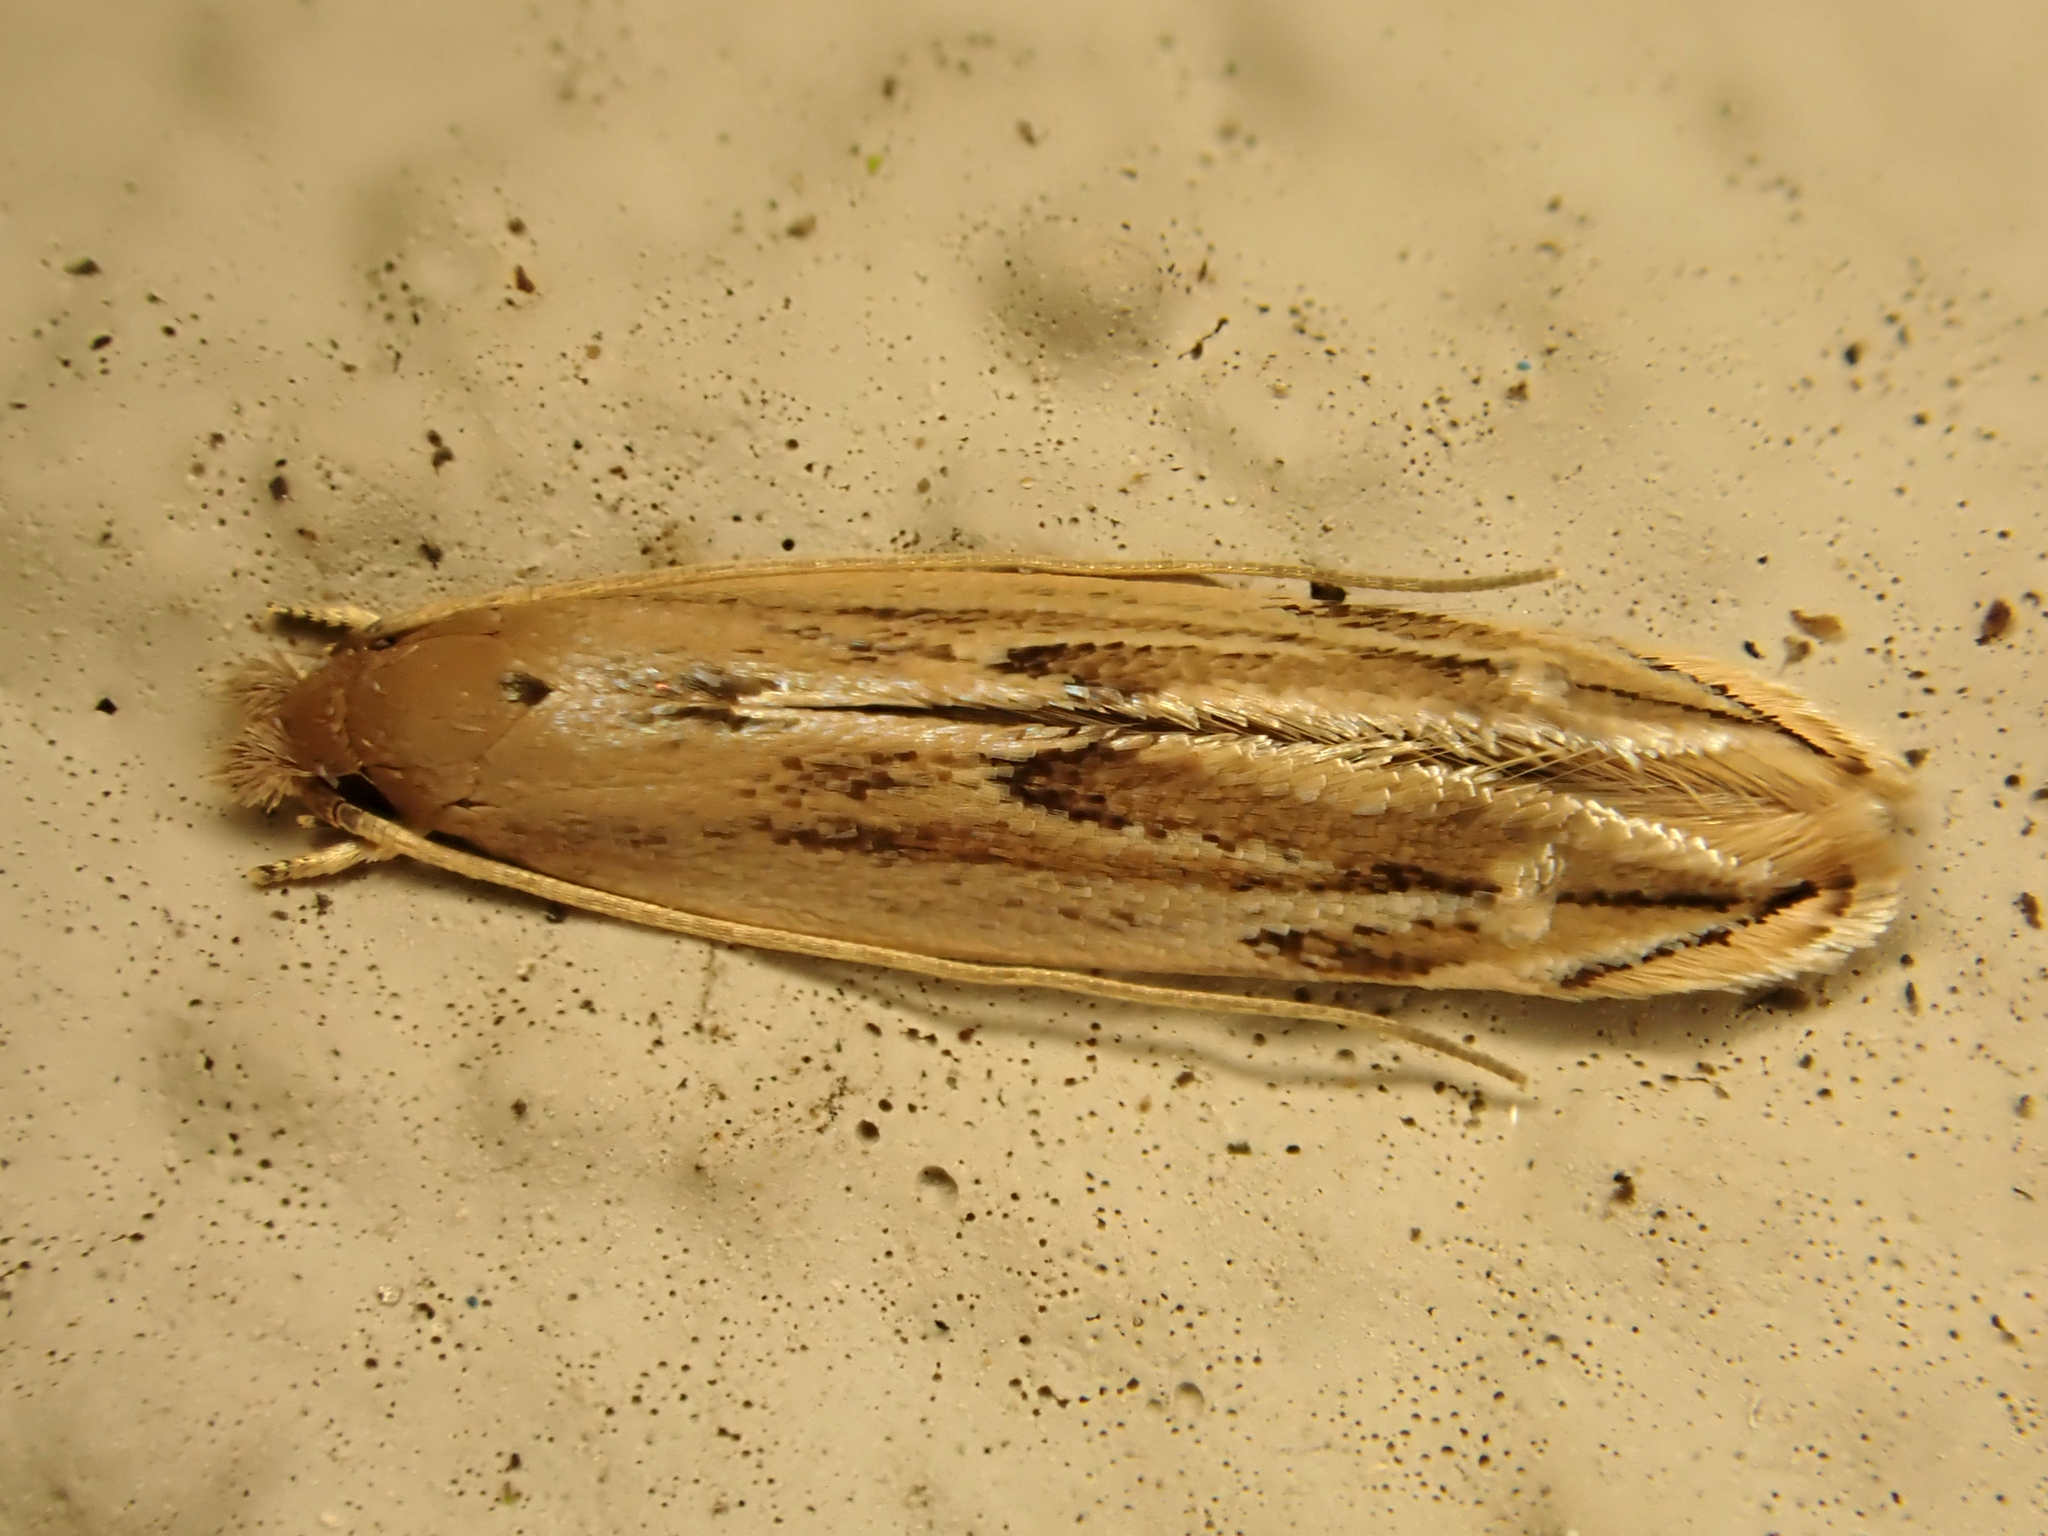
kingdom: Animalia
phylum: Arthropoda
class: Insecta
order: Lepidoptera
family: Tineidae
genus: Amphixystis
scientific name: Amphixystis hapsimacha
